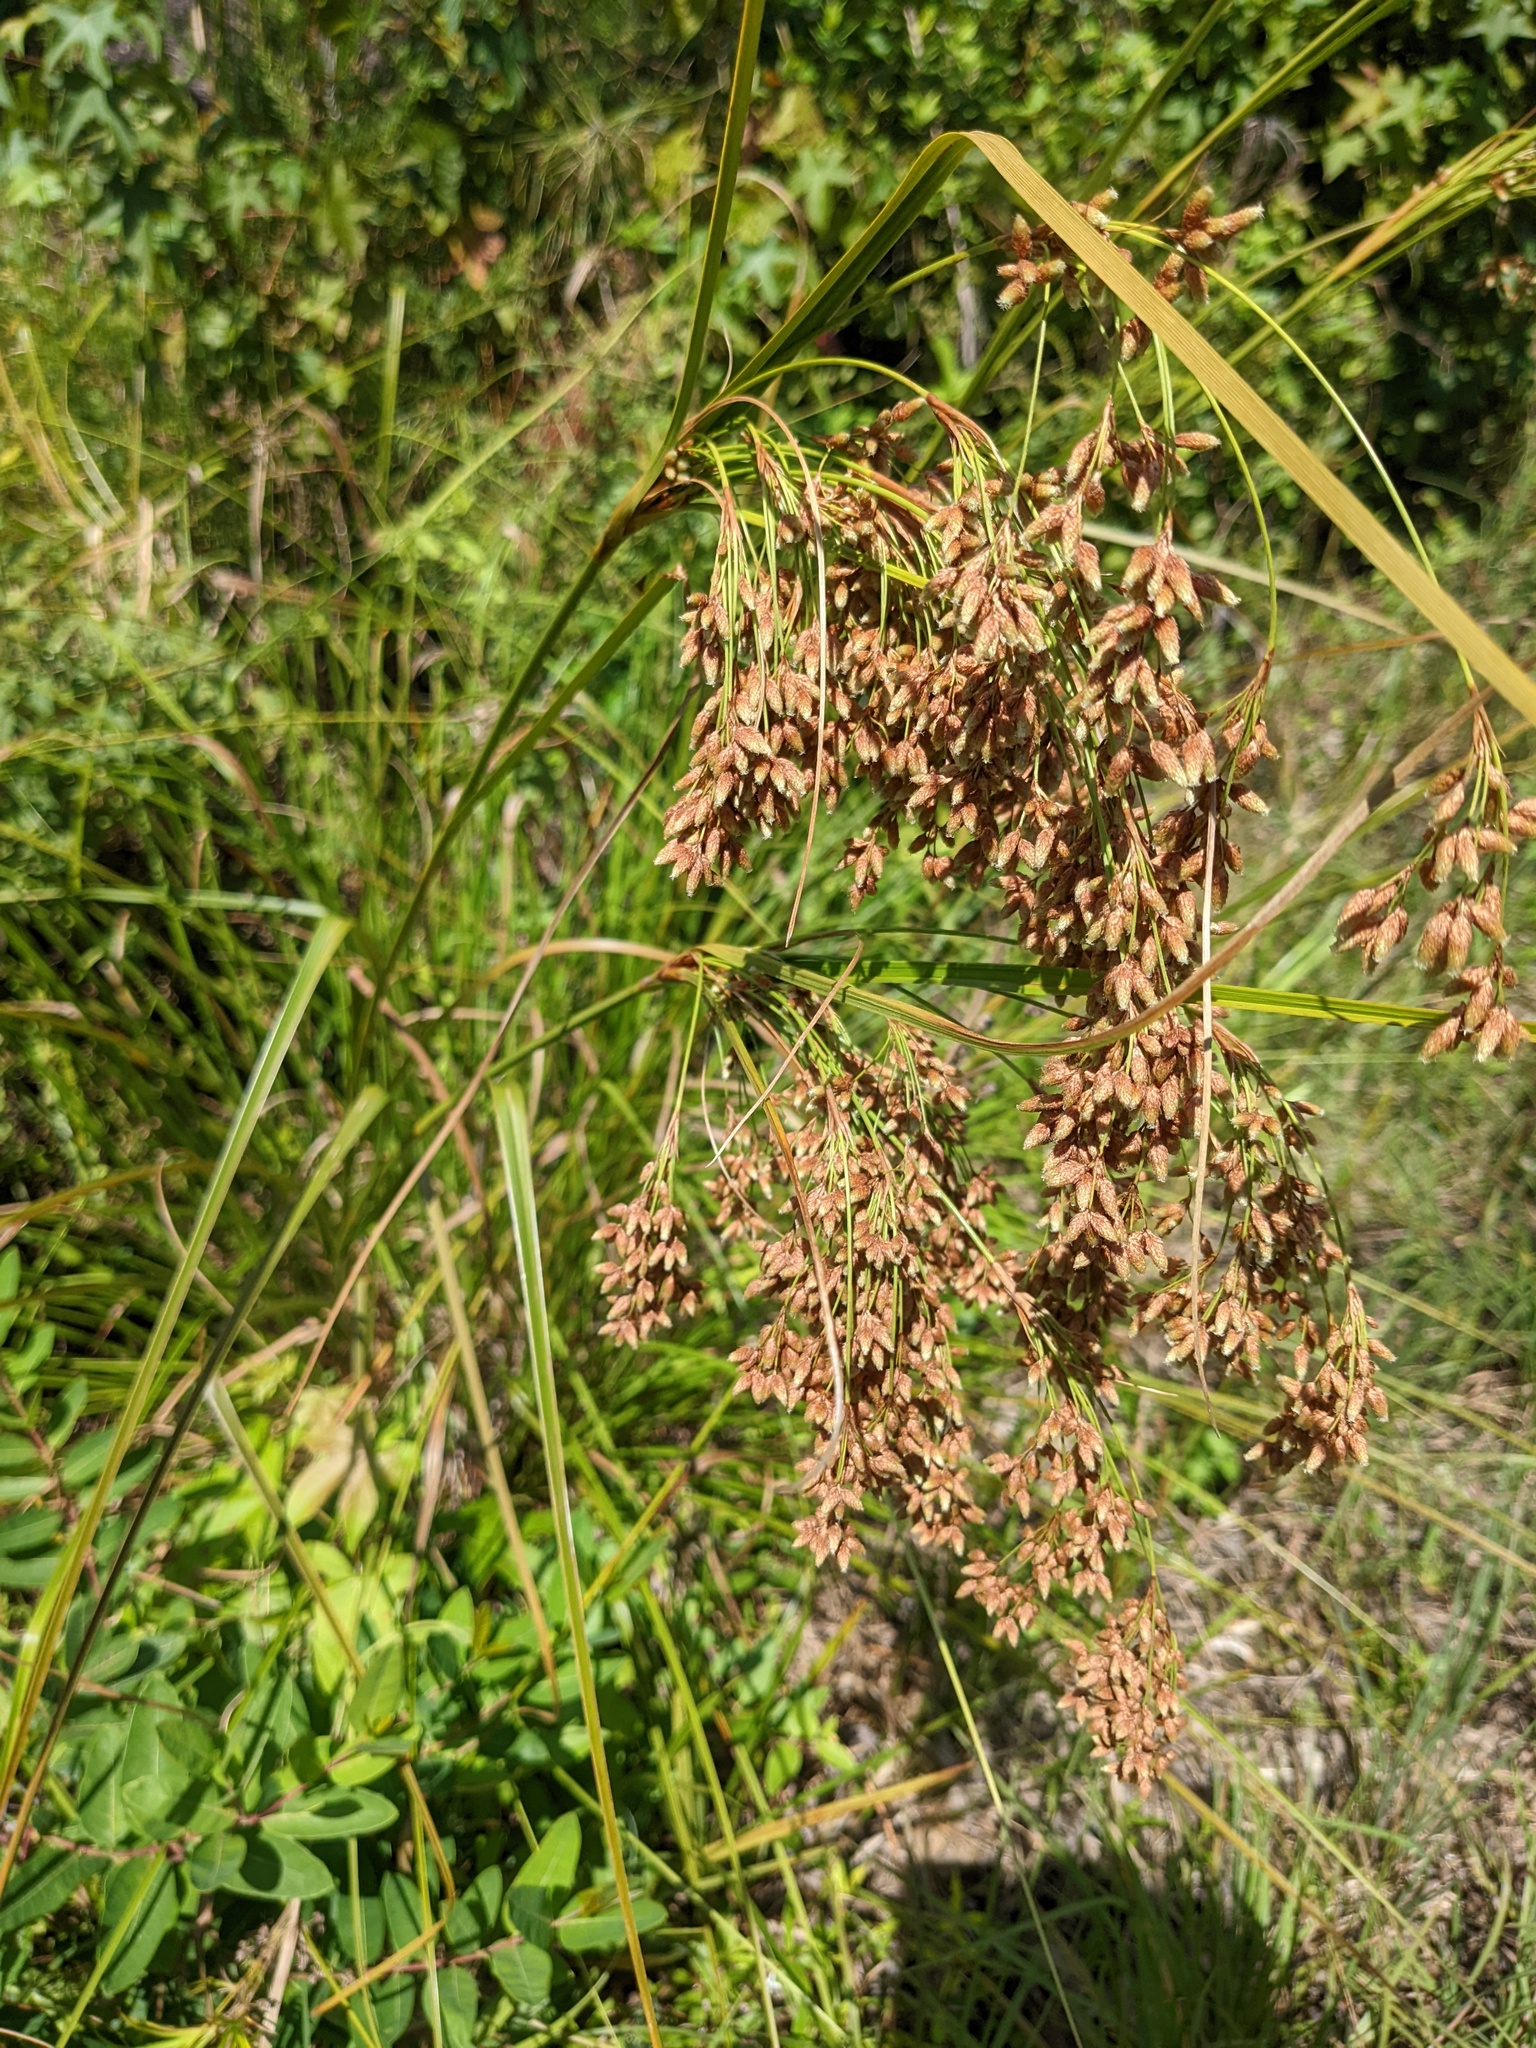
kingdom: Plantae
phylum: Tracheophyta
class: Liliopsida
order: Poales
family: Cyperaceae
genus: Scirpus
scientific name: Scirpus cyperinus
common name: Black-sheathed bulrush
